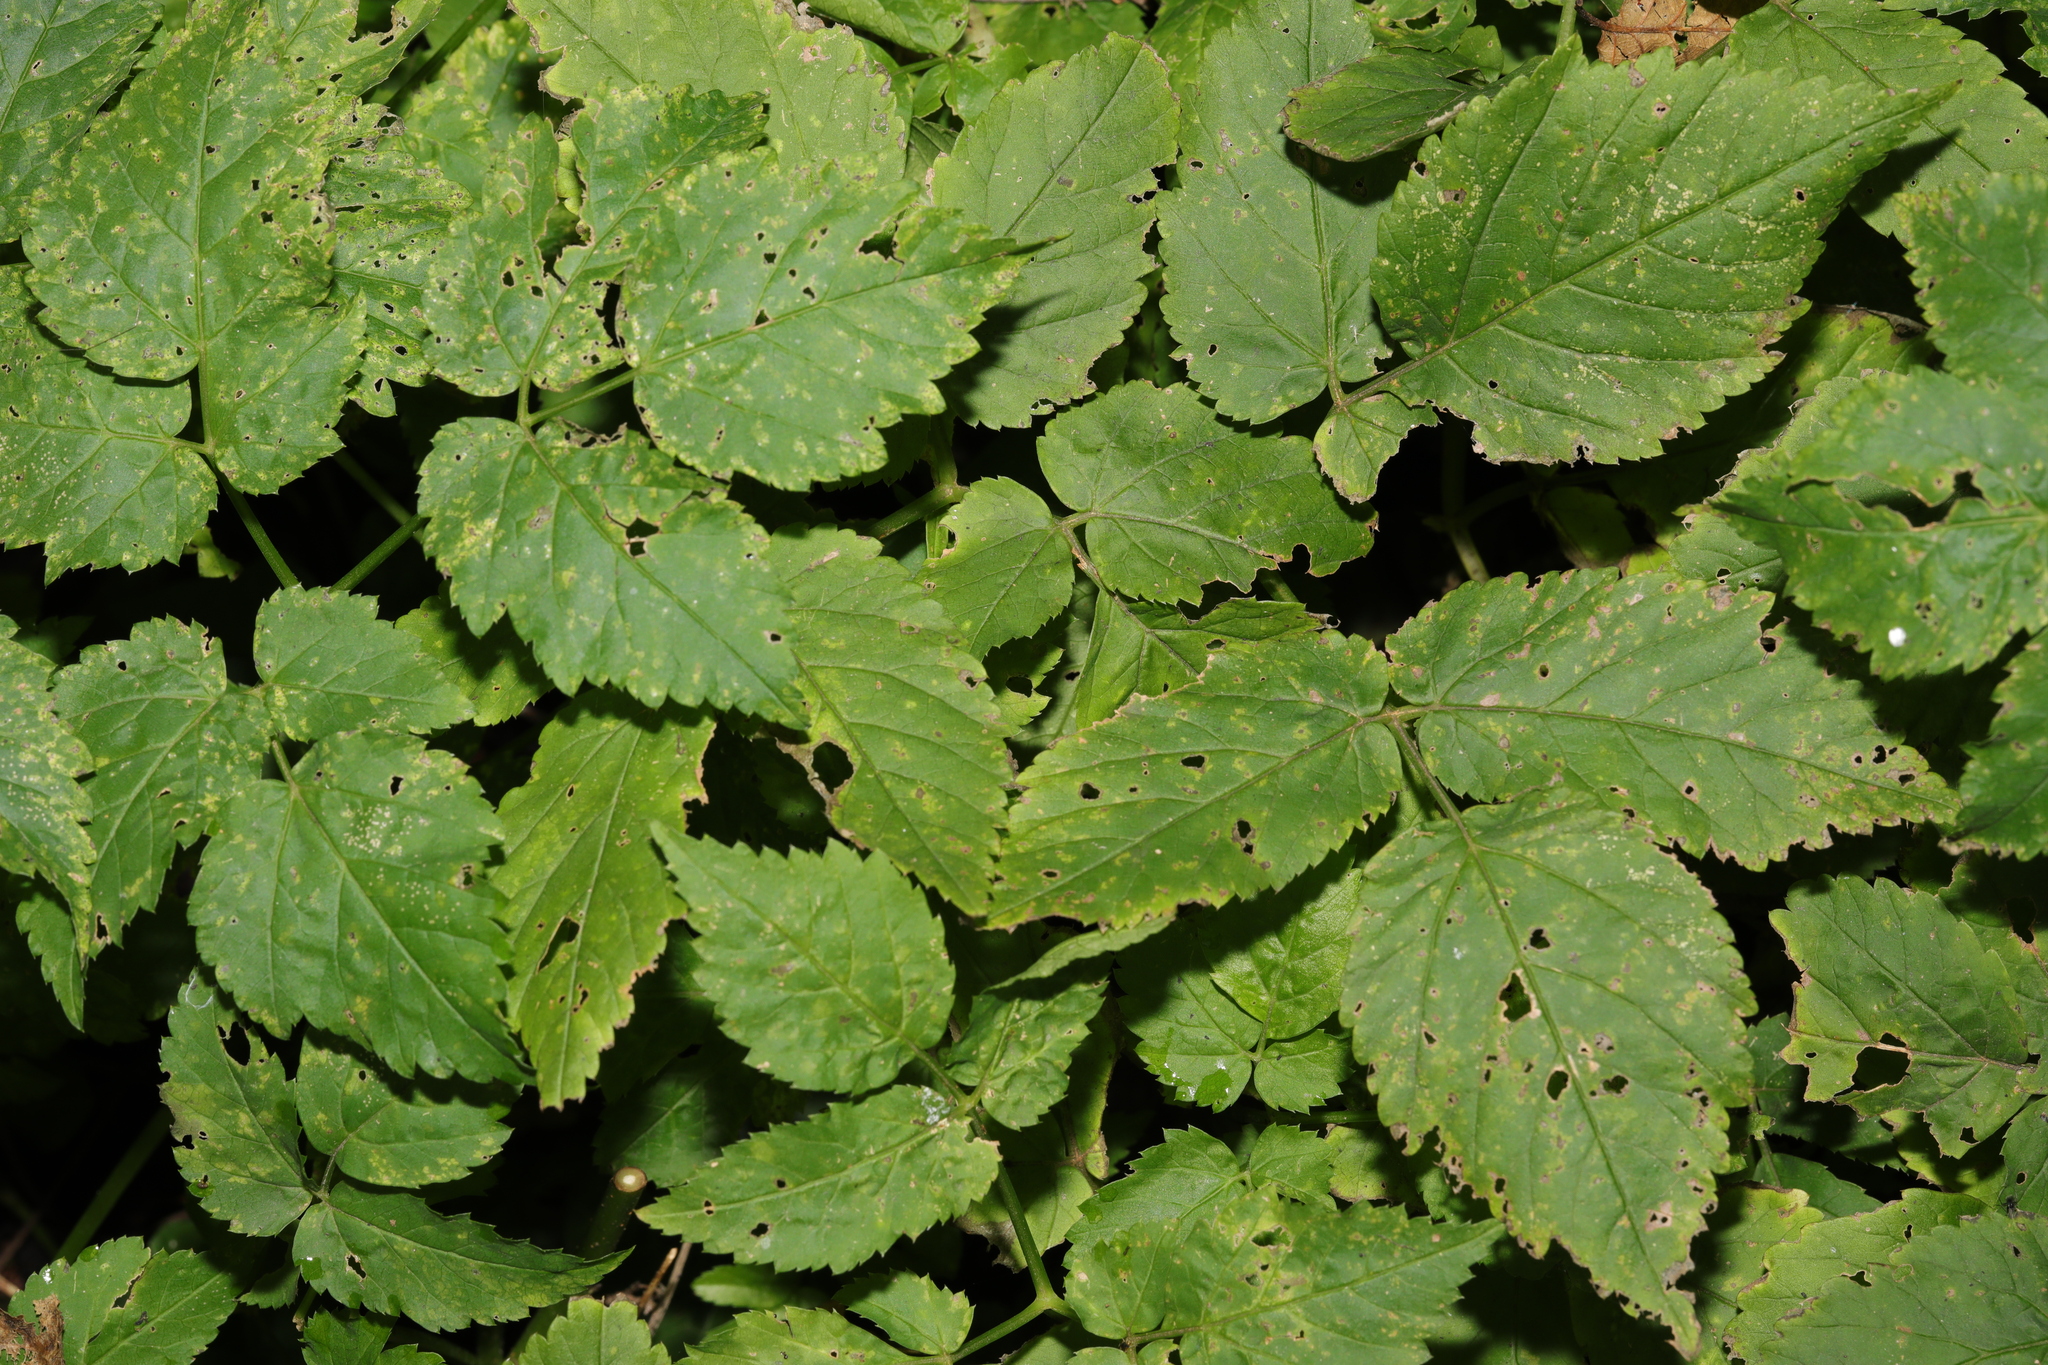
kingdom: Plantae
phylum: Tracheophyta
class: Magnoliopsida
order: Apiales
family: Apiaceae
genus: Aegopodium
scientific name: Aegopodium podagraria
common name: Ground-elder
